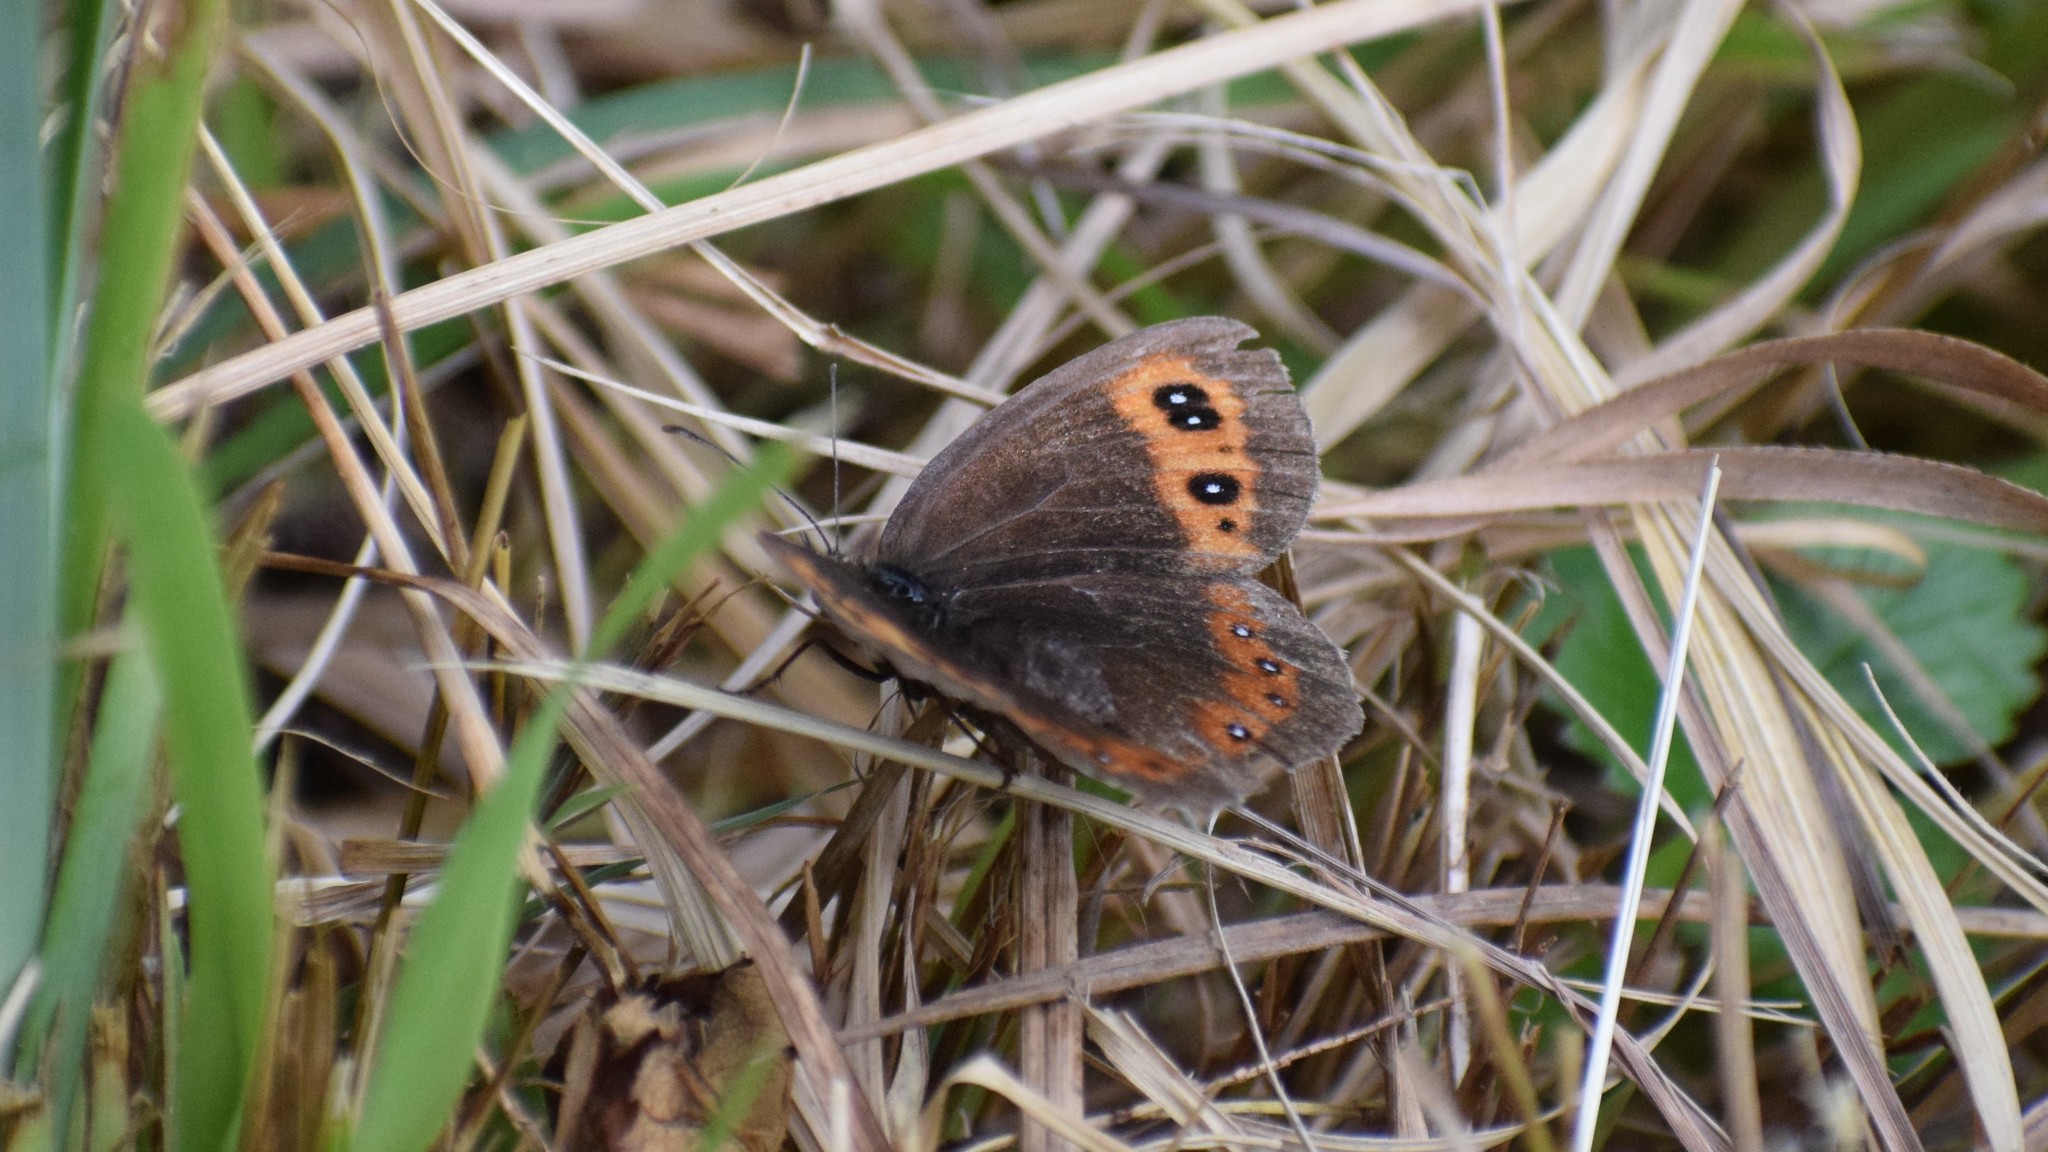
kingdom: Animalia
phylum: Arthropoda
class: Insecta
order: Lepidoptera
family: Nymphalidae
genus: Erebia
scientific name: Erebia aethiops
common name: Scotch argus
